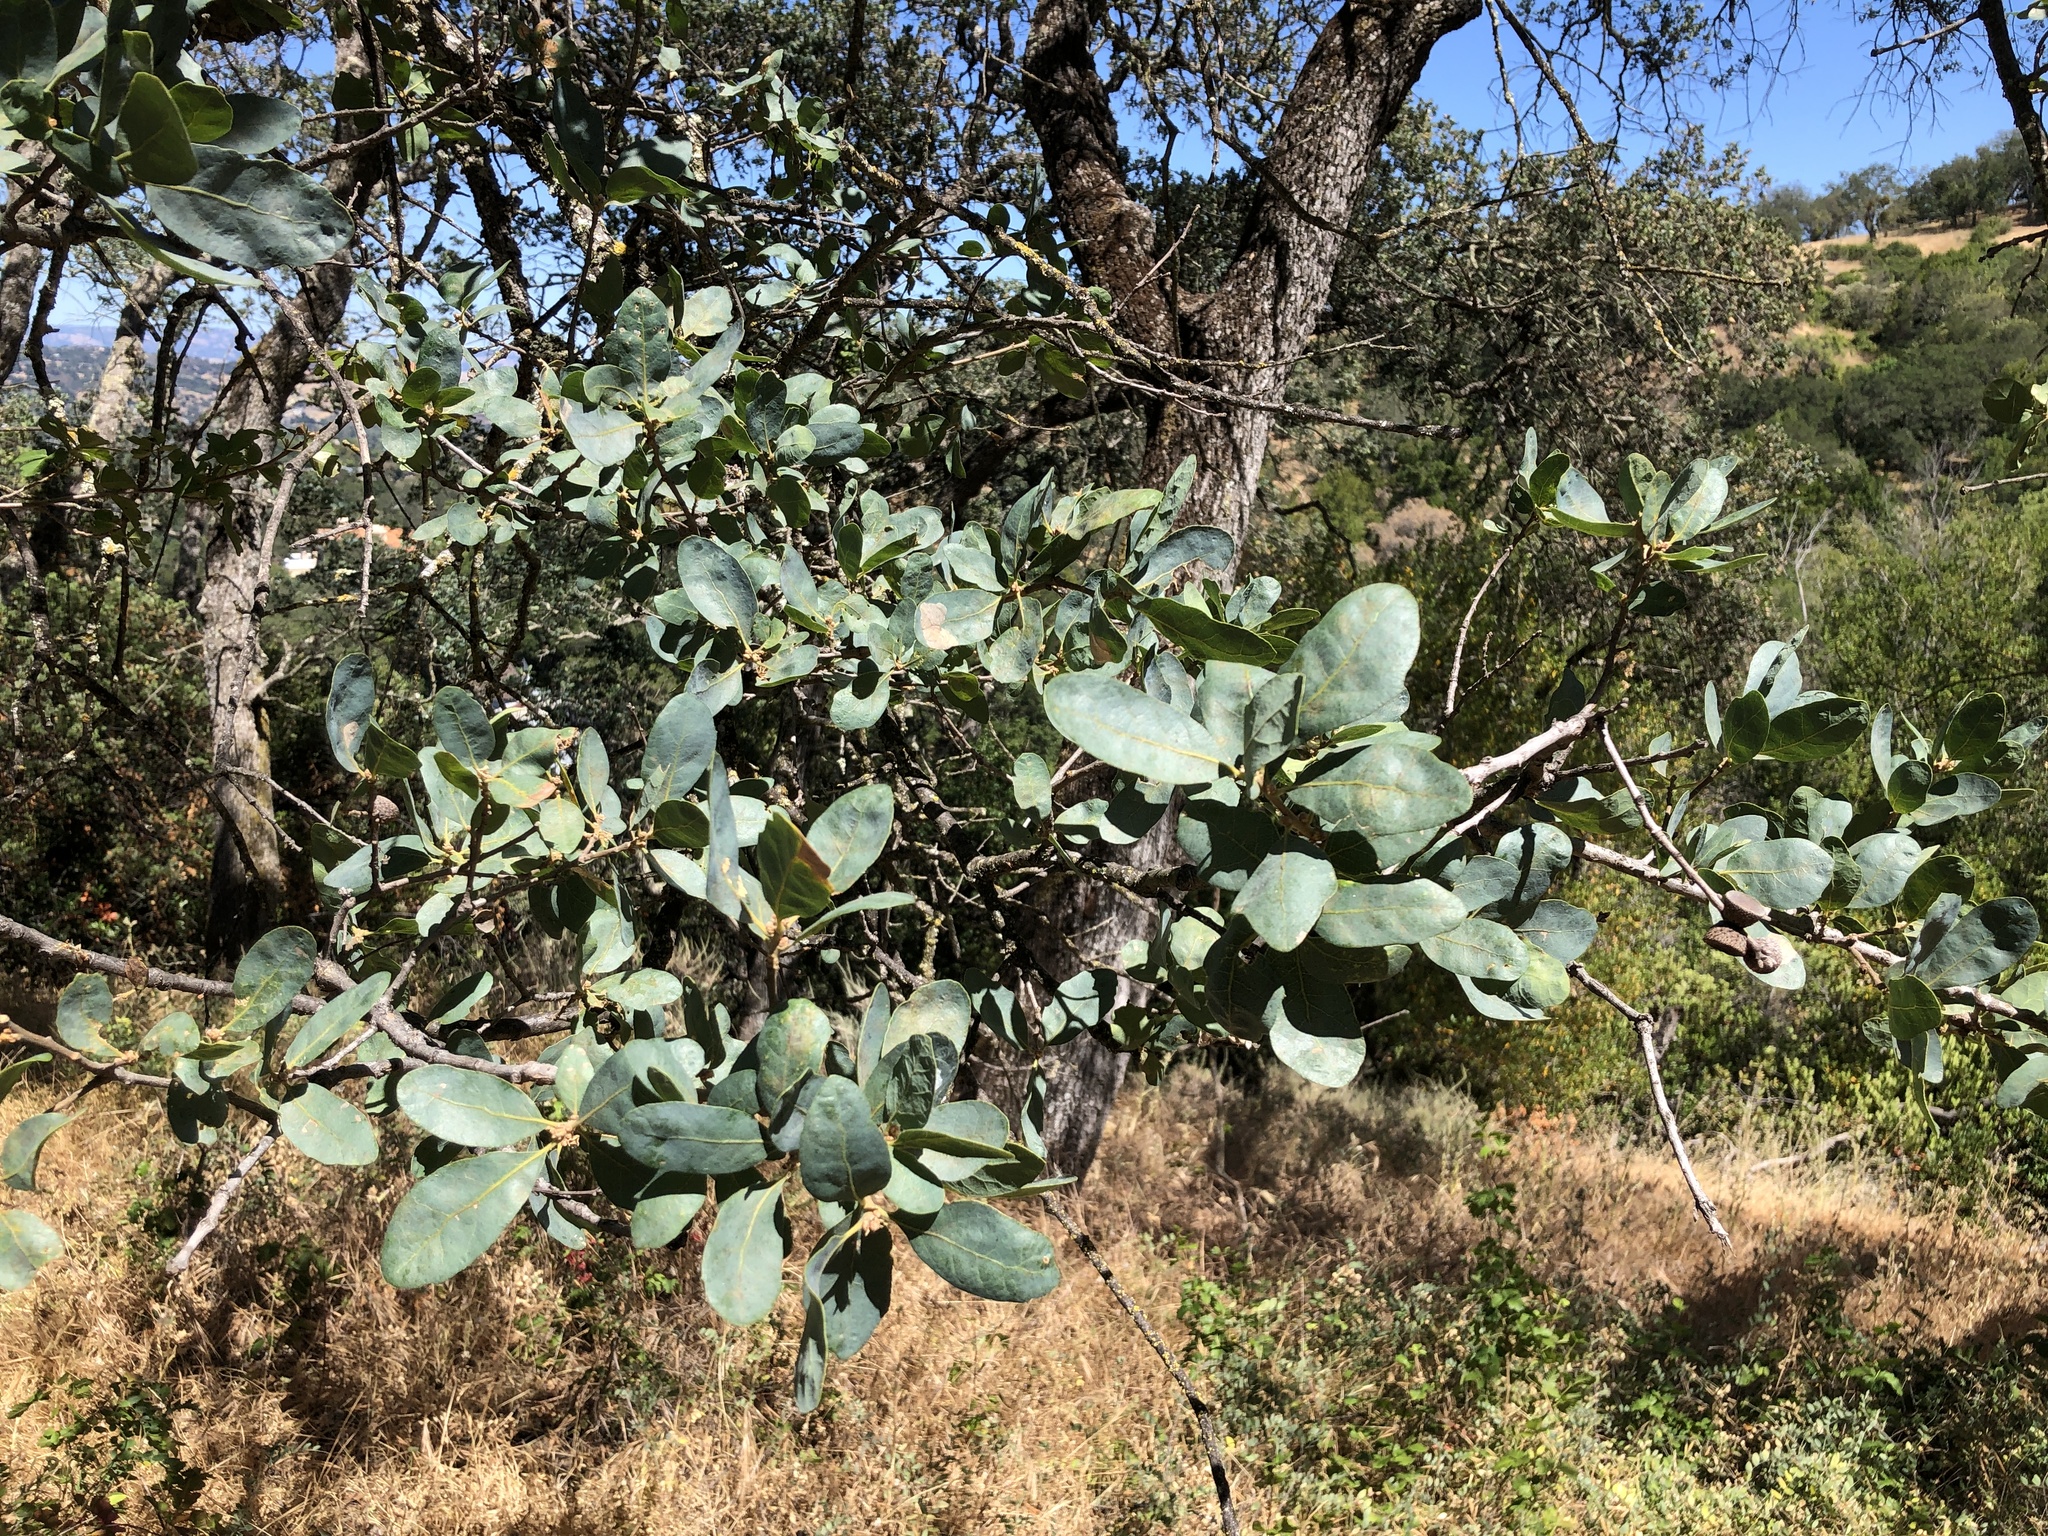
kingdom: Plantae
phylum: Tracheophyta
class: Magnoliopsida
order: Fagales
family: Fagaceae
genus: Quercus
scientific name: Quercus douglasii
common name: Blue oak
